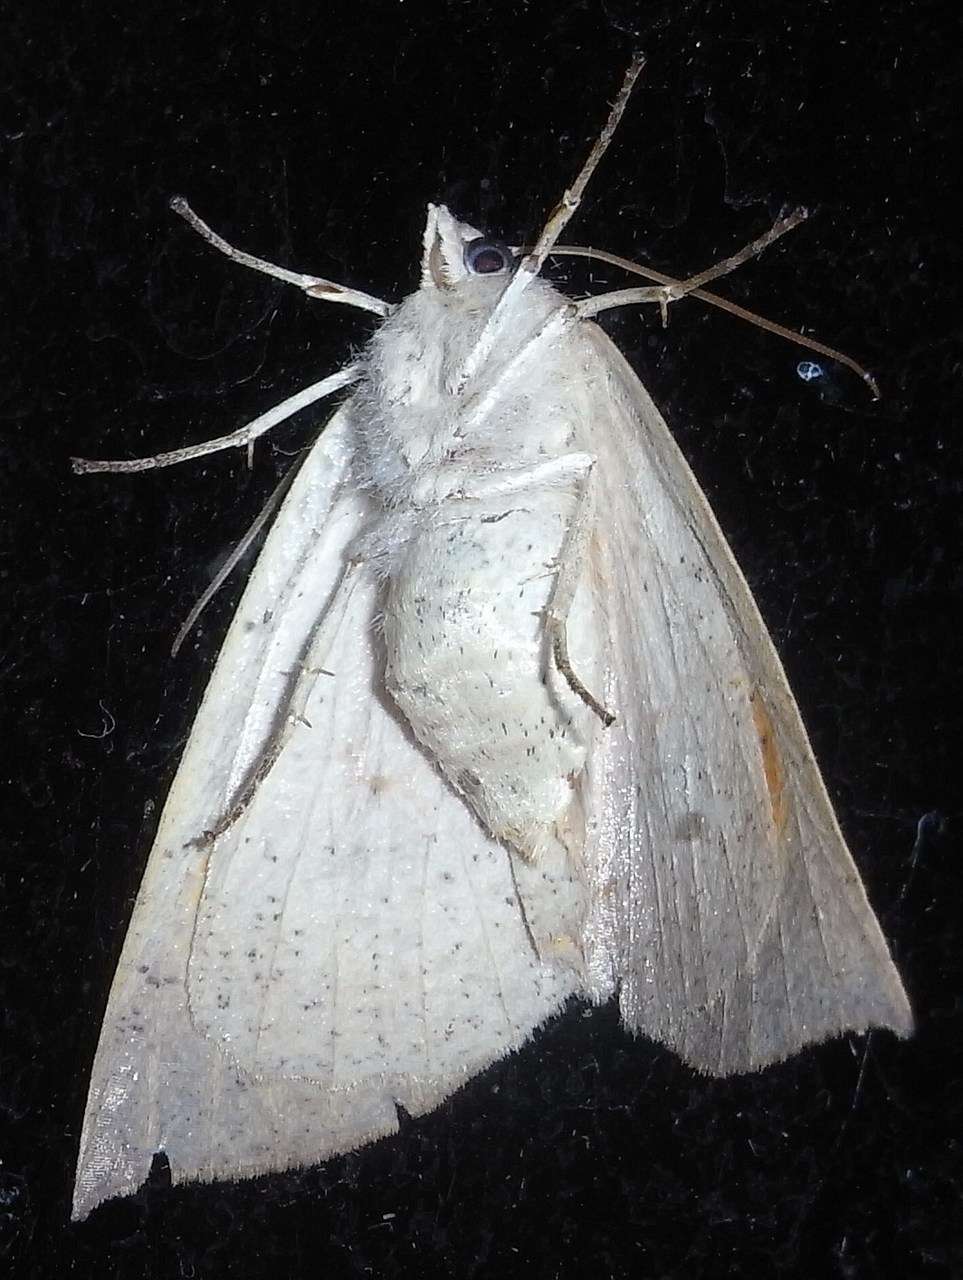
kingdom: Animalia
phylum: Arthropoda
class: Insecta
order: Lepidoptera
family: Geometridae
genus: Mnesampela
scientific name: Mnesampela heliochrysa
